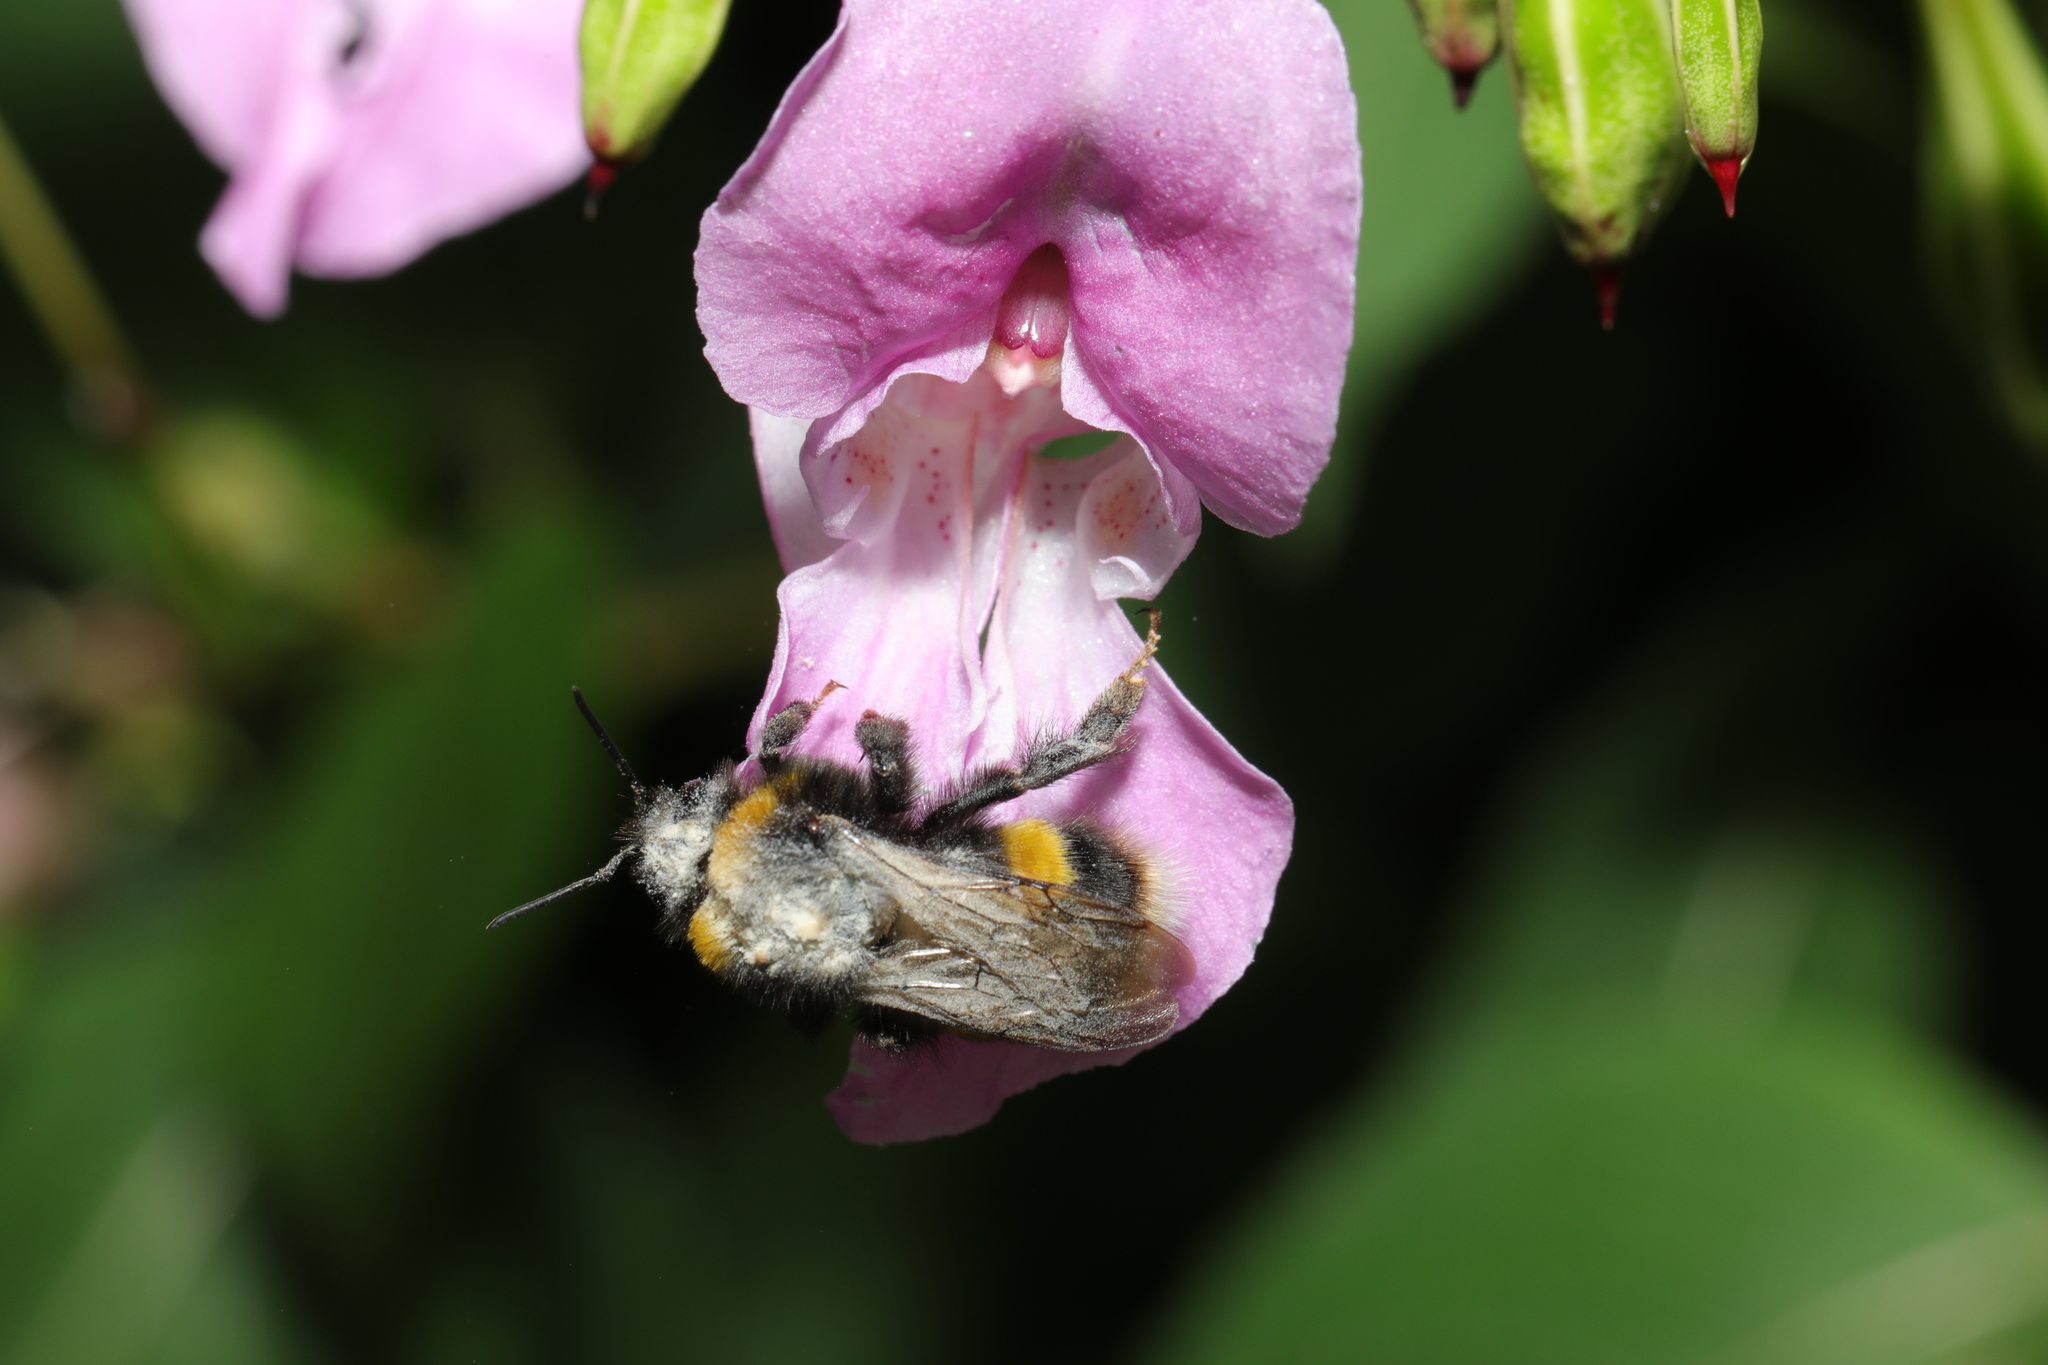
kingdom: Animalia
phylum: Arthropoda
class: Insecta
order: Hymenoptera
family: Apidae
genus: Bombus
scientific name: Bombus terrestris
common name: Buff-tailed bumblebee
